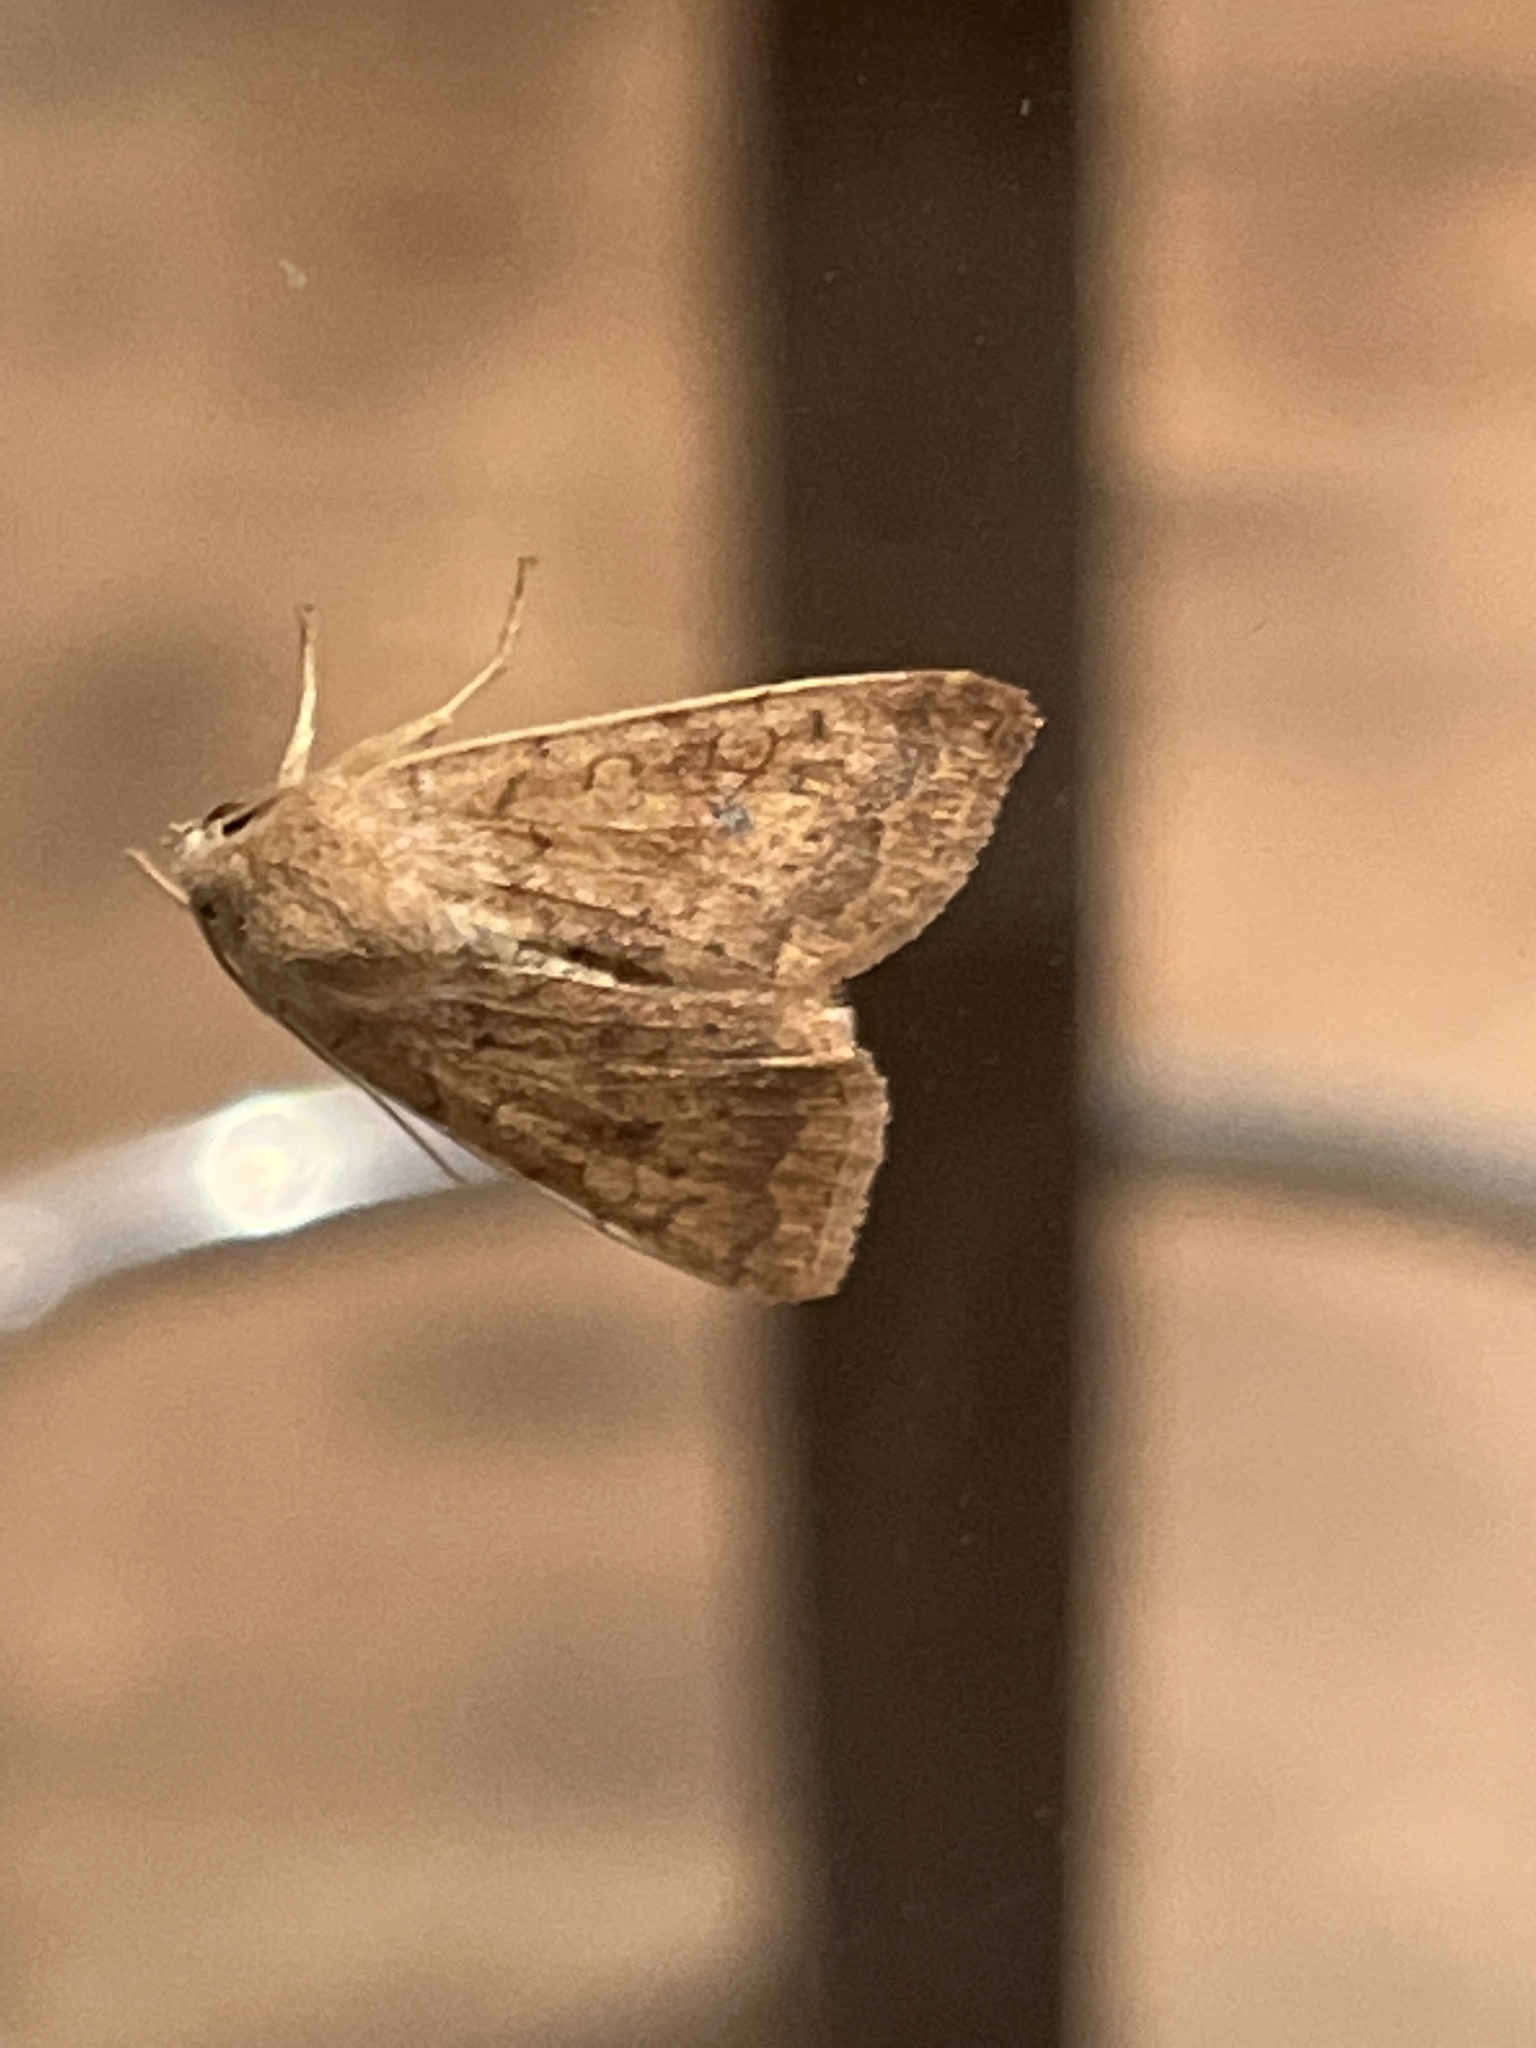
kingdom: Animalia
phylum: Arthropoda
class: Insecta
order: Lepidoptera
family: Noctuidae
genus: Agrochola
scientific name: Agrochola bicolorago
